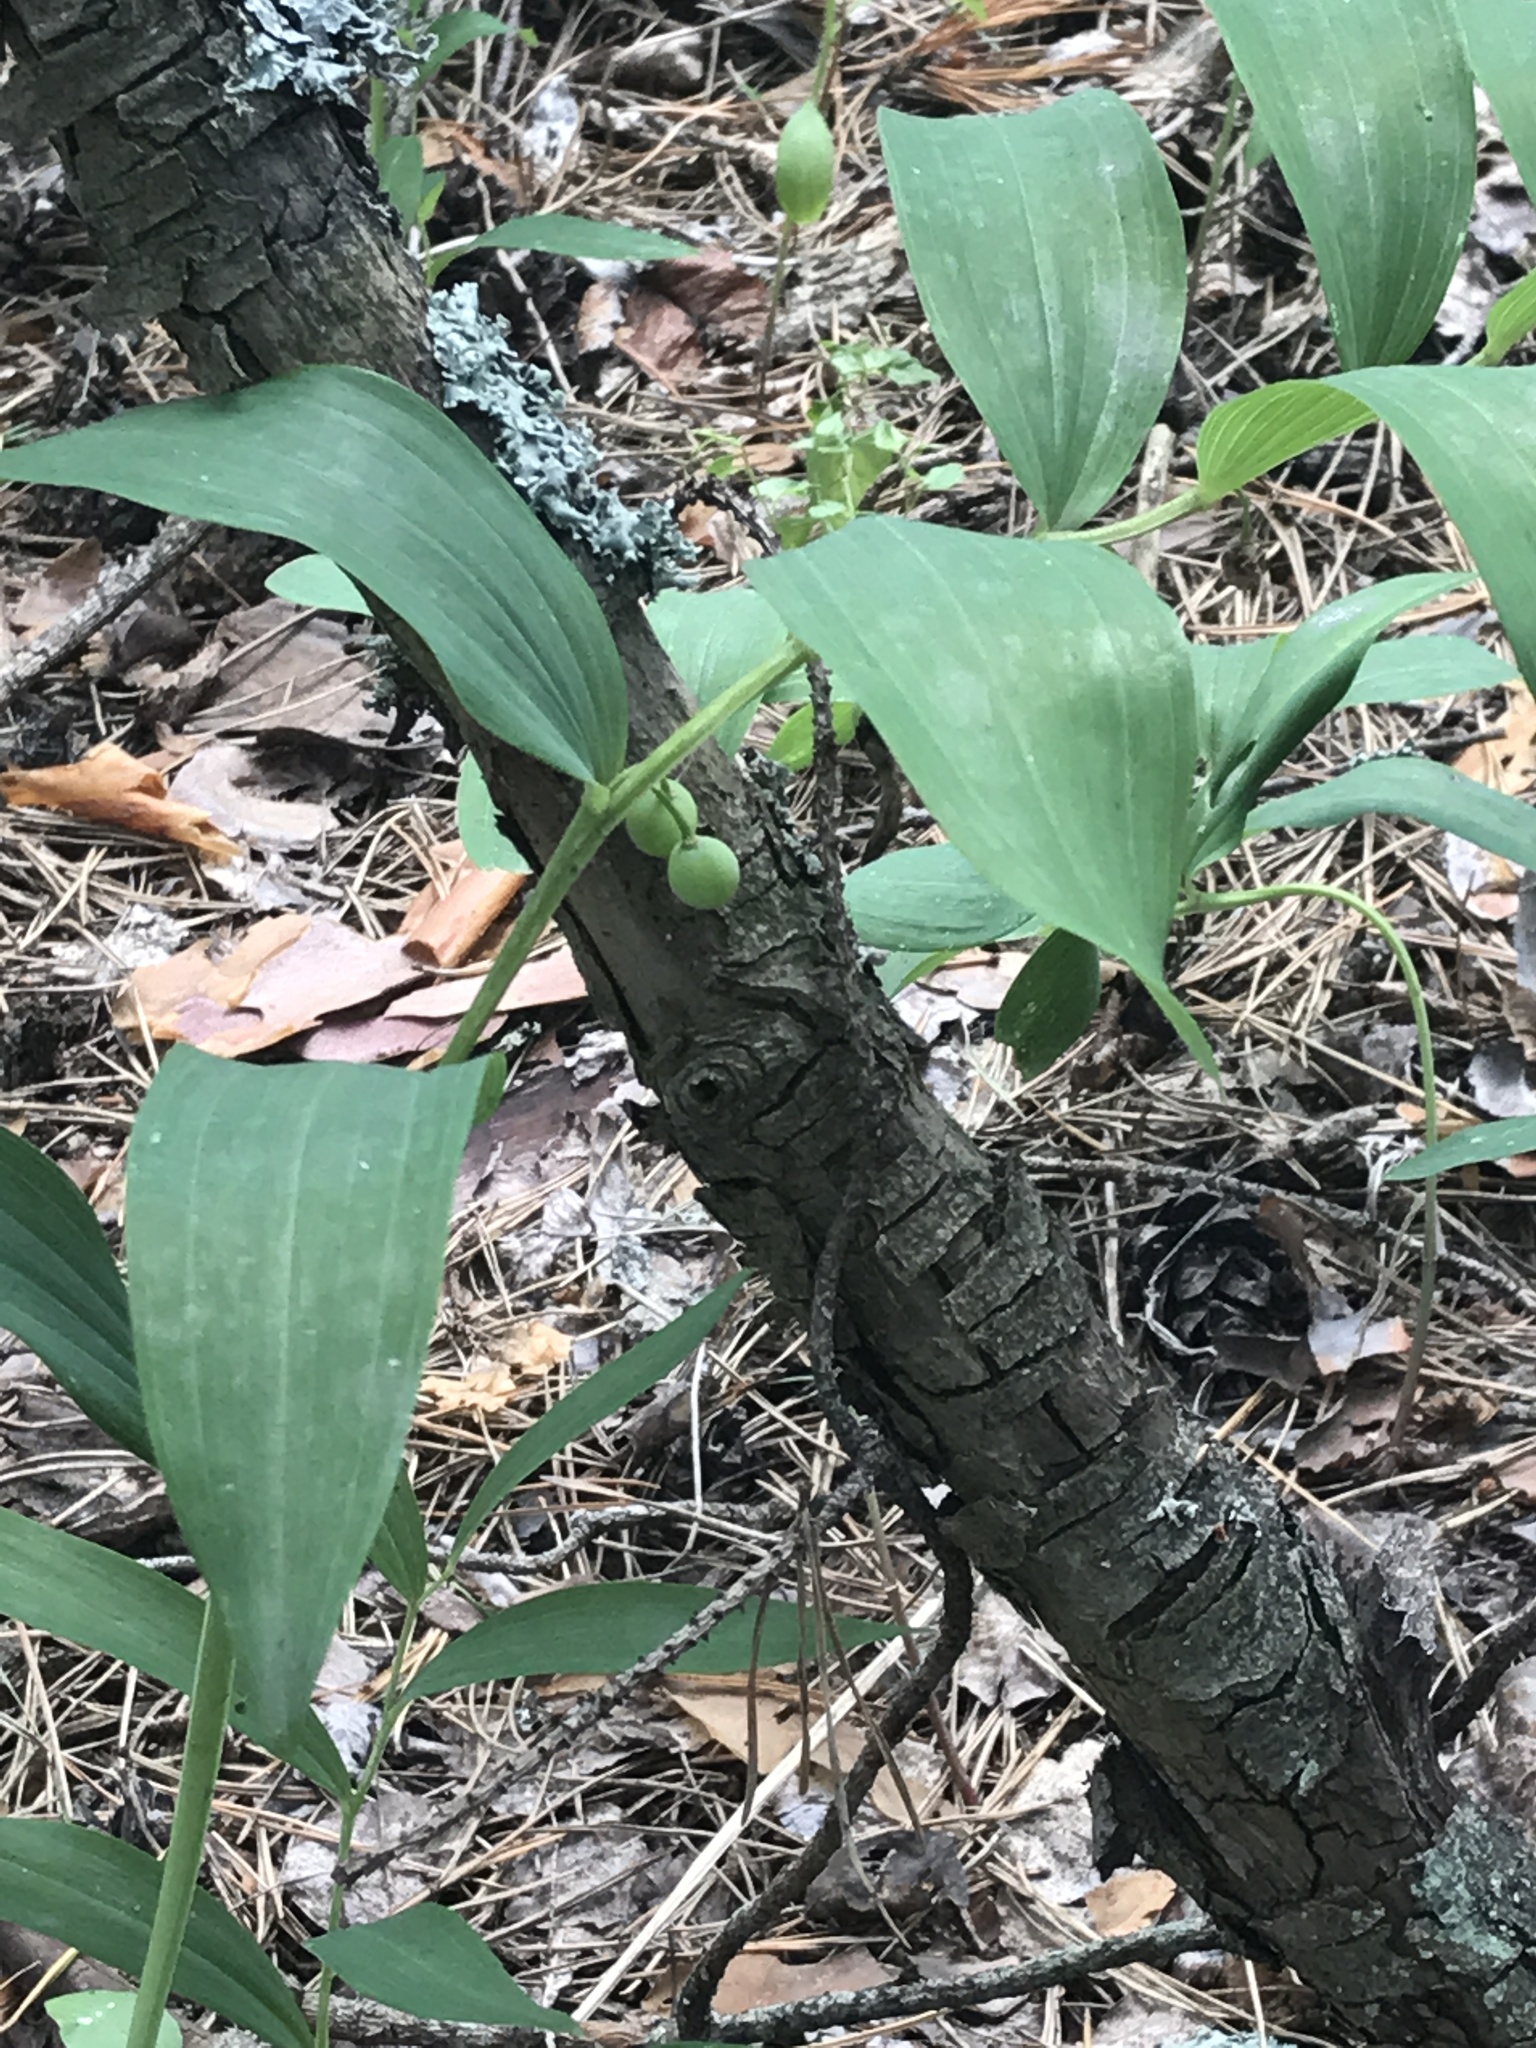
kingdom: Plantae
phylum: Tracheophyta
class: Liliopsida
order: Asparagales
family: Asparagaceae
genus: Polygonatum
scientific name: Polygonatum odoratum
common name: Angular solomon's-seal
